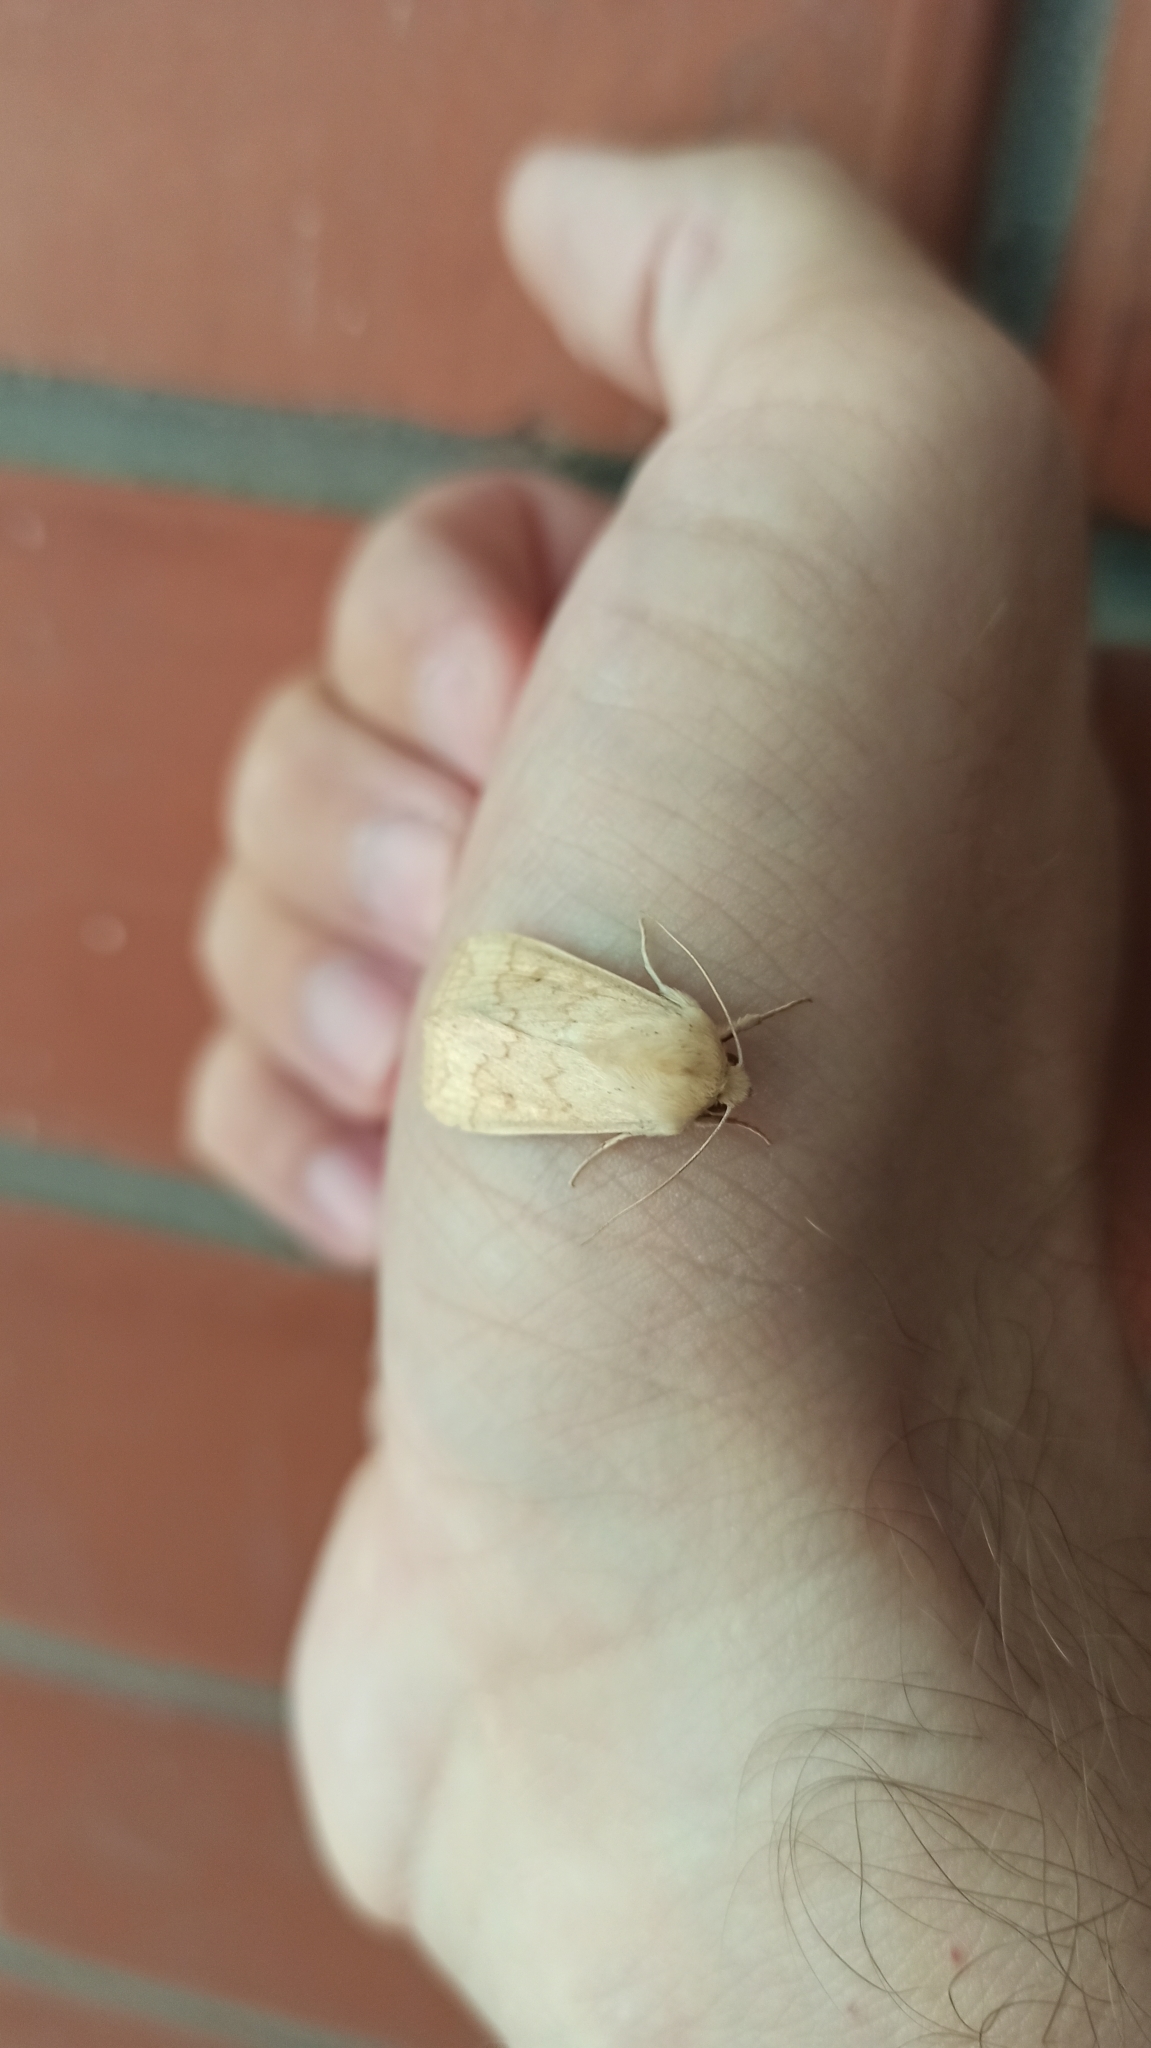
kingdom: Animalia
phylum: Arthropoda
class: Insecta
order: Lepidoptera
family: Noctuidae
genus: Mythimna
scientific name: Mythimna vitellina
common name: Delicate
